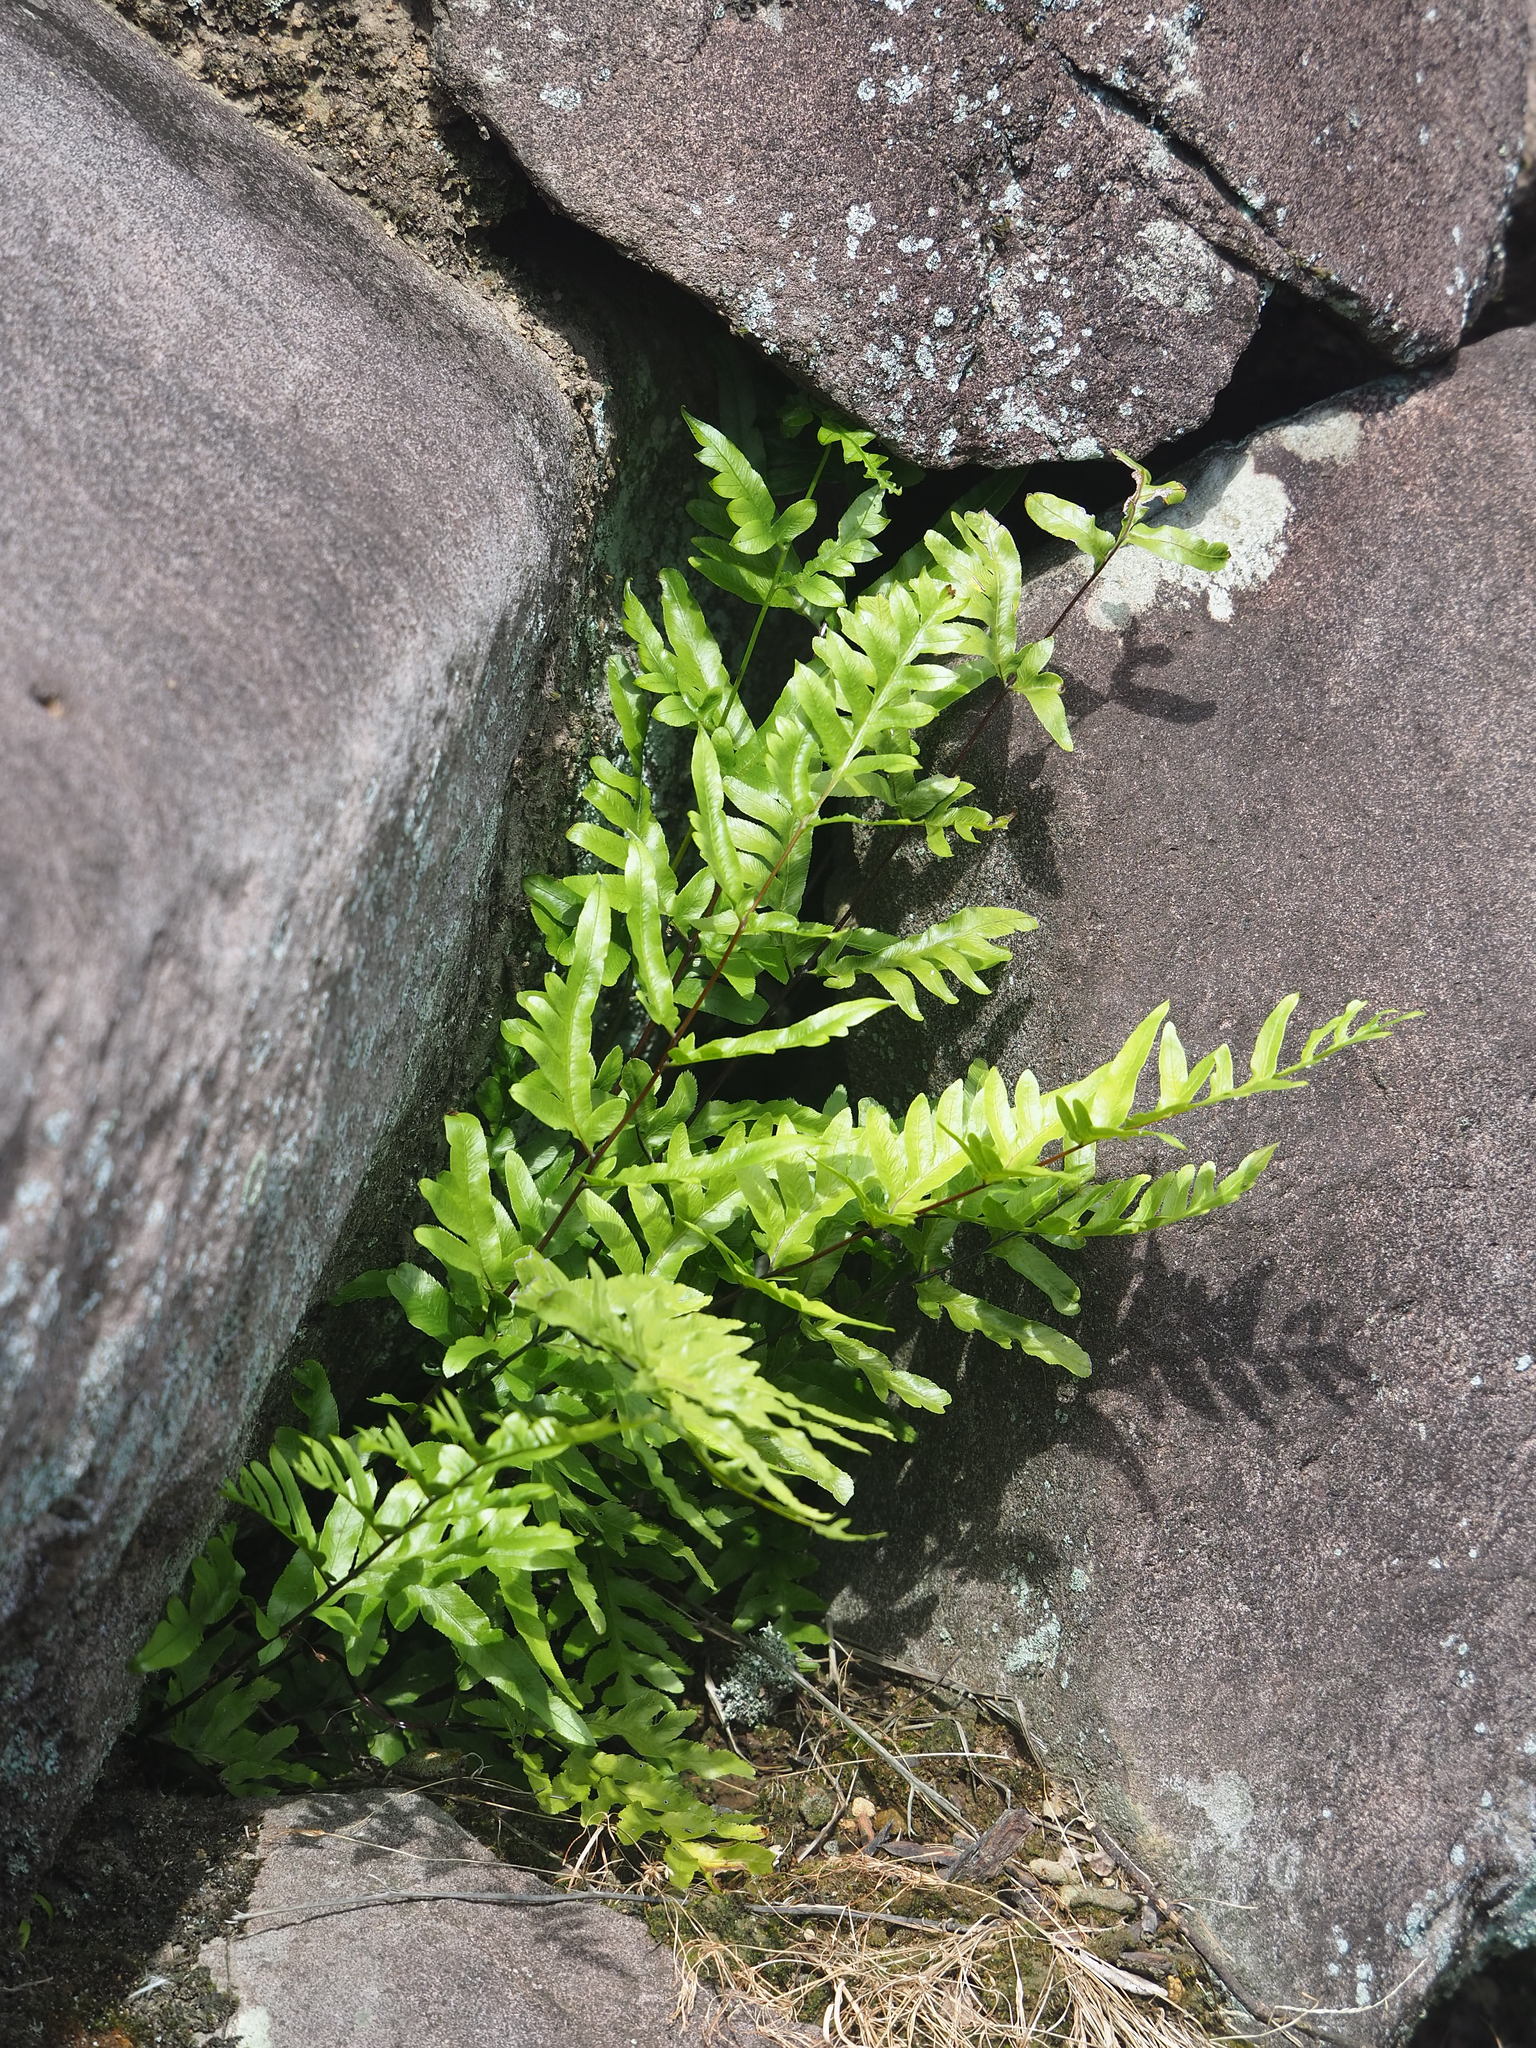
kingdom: Plantae
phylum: Tracheophyta
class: Polypodiopsida
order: Polypodiales
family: Pteridaceae
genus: Pteris
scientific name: Pteris semipinnata
